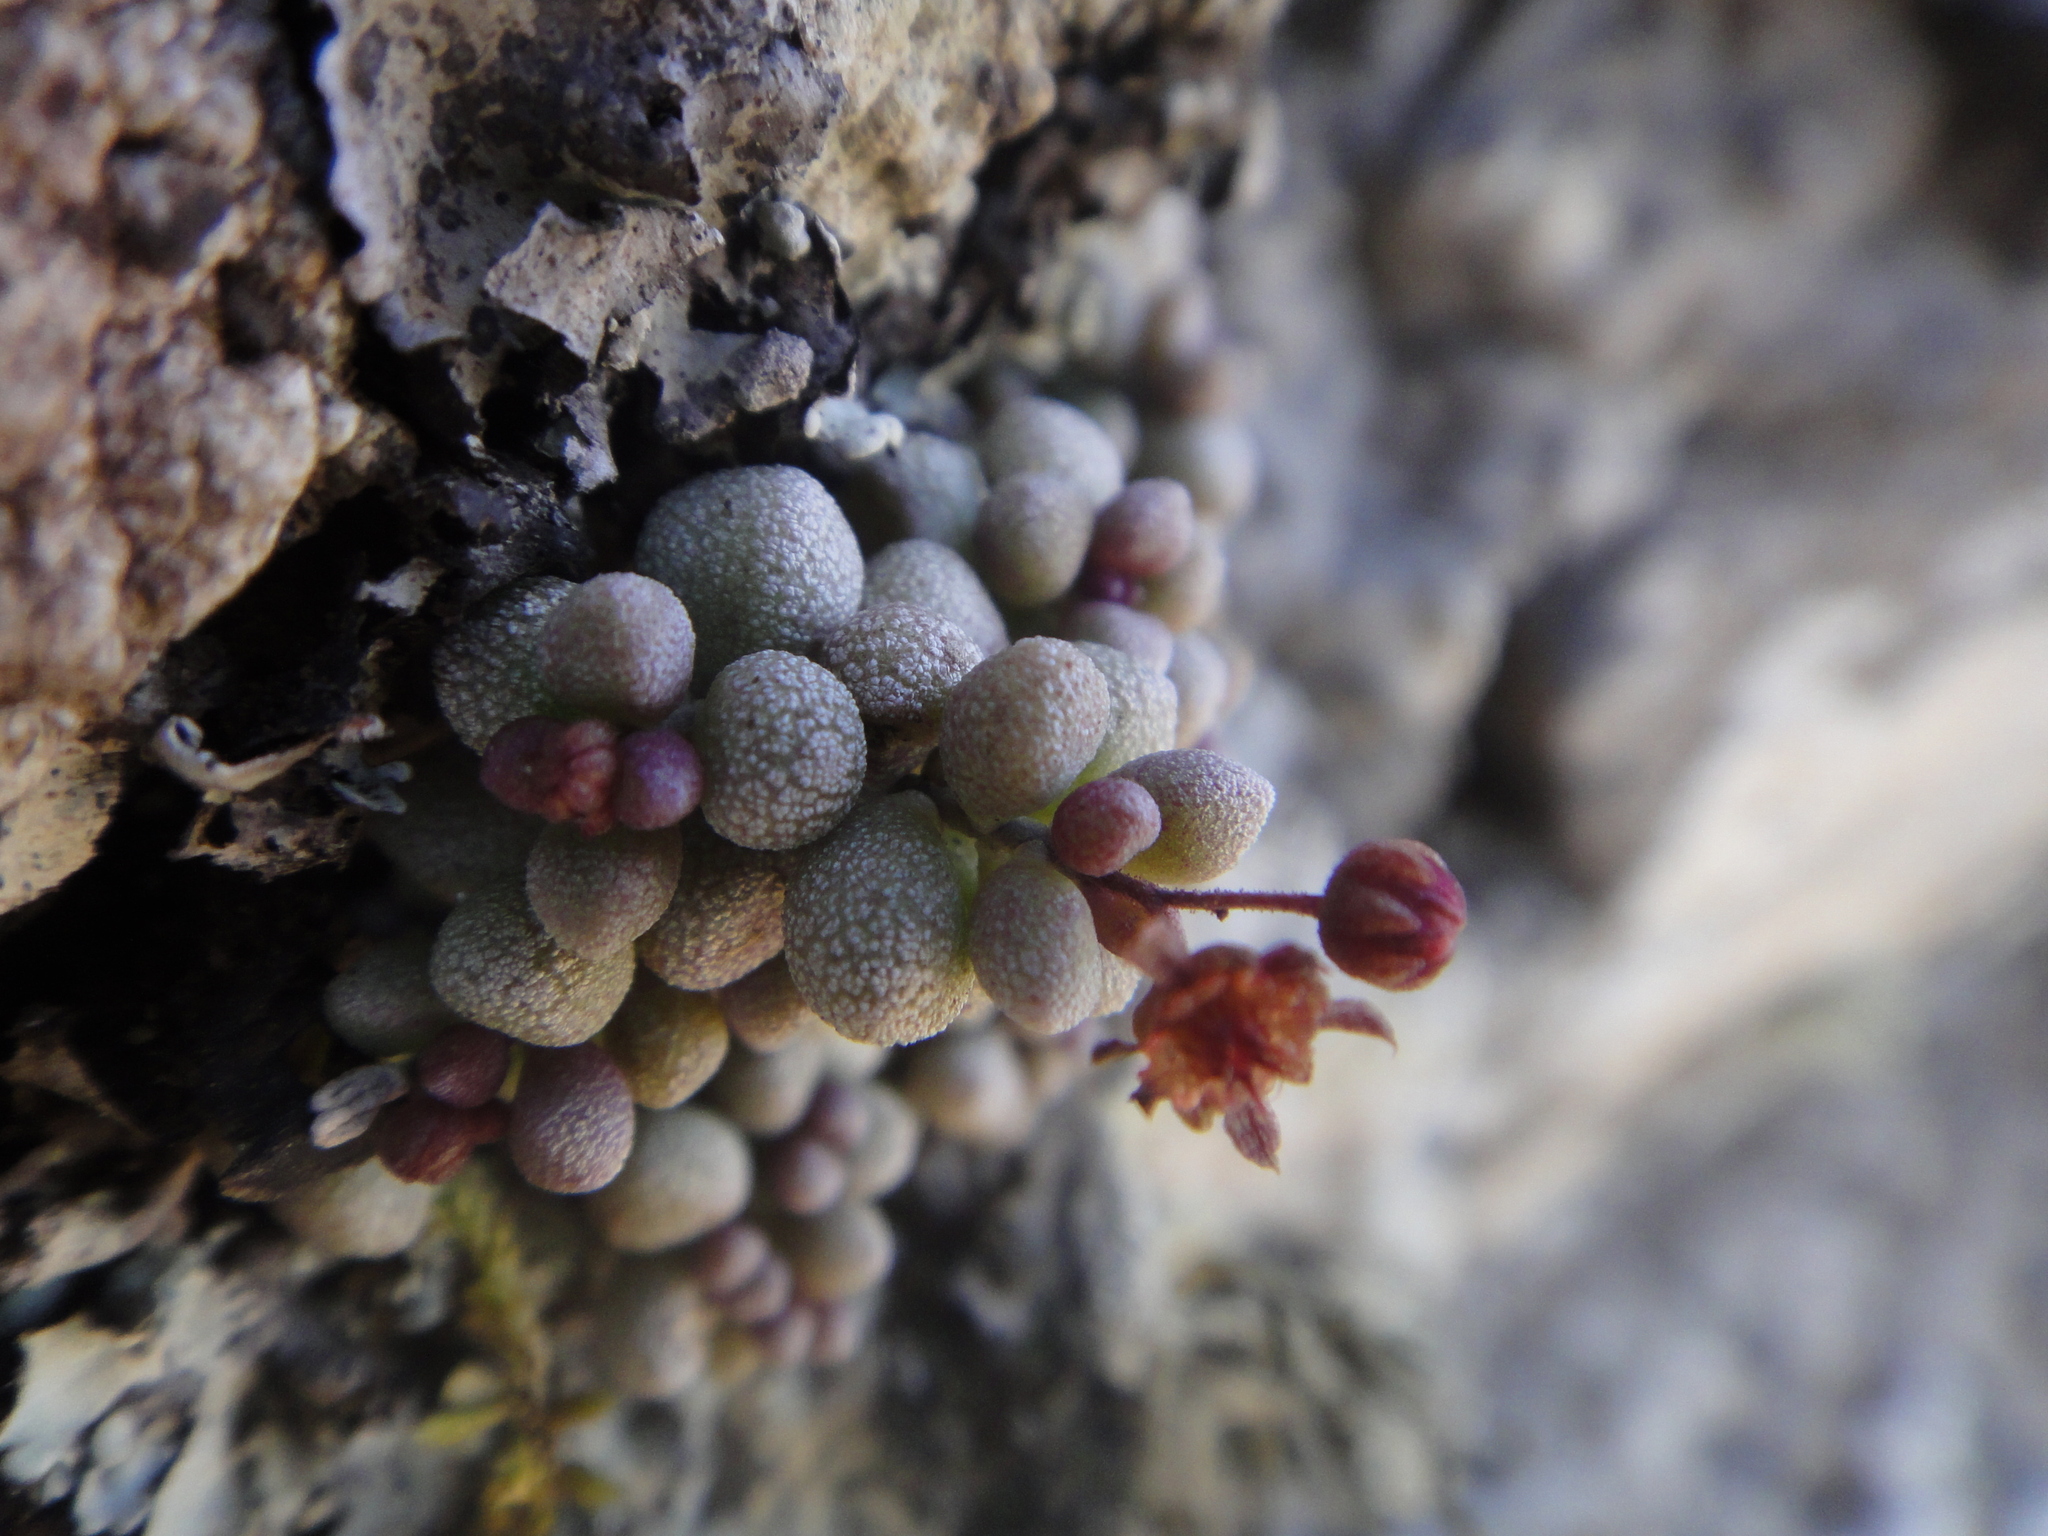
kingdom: Plantae
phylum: Tracheophyta
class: Magnoliopsida
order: Saxifragales
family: Crassulaceae
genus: Monanthes
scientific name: Monanthes laxiflora
